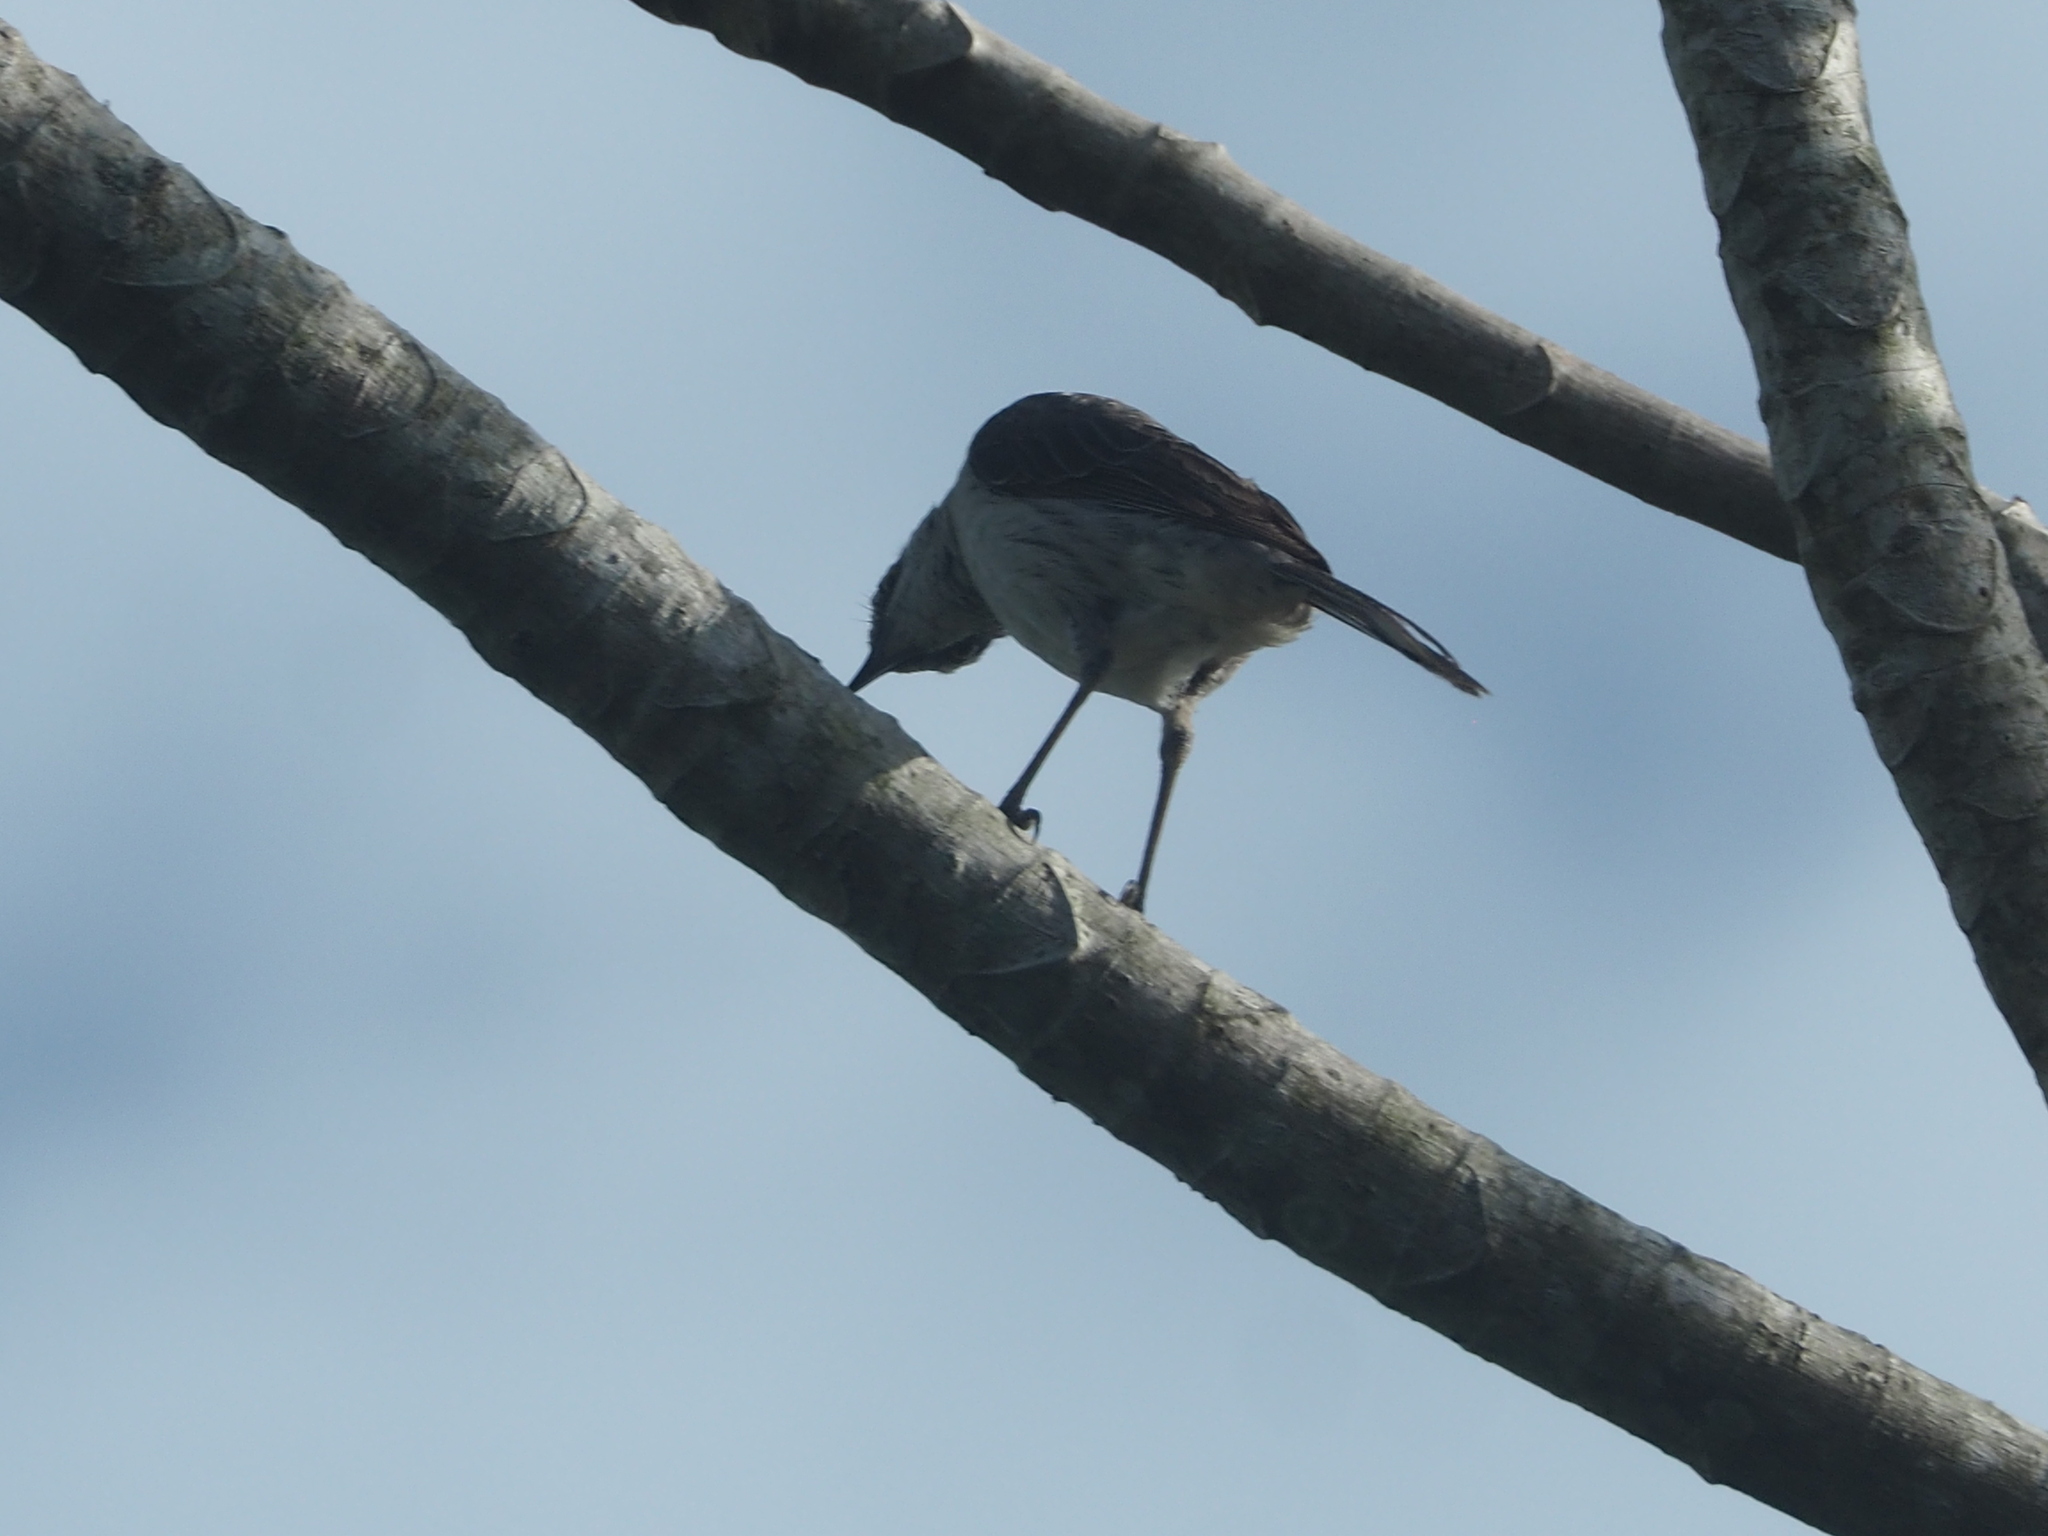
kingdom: Animalia
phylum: Chordata
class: Aves
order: Passeriformes
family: Mimidae
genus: Mimus
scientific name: Mimus gilvus
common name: Tropical mockingbird
